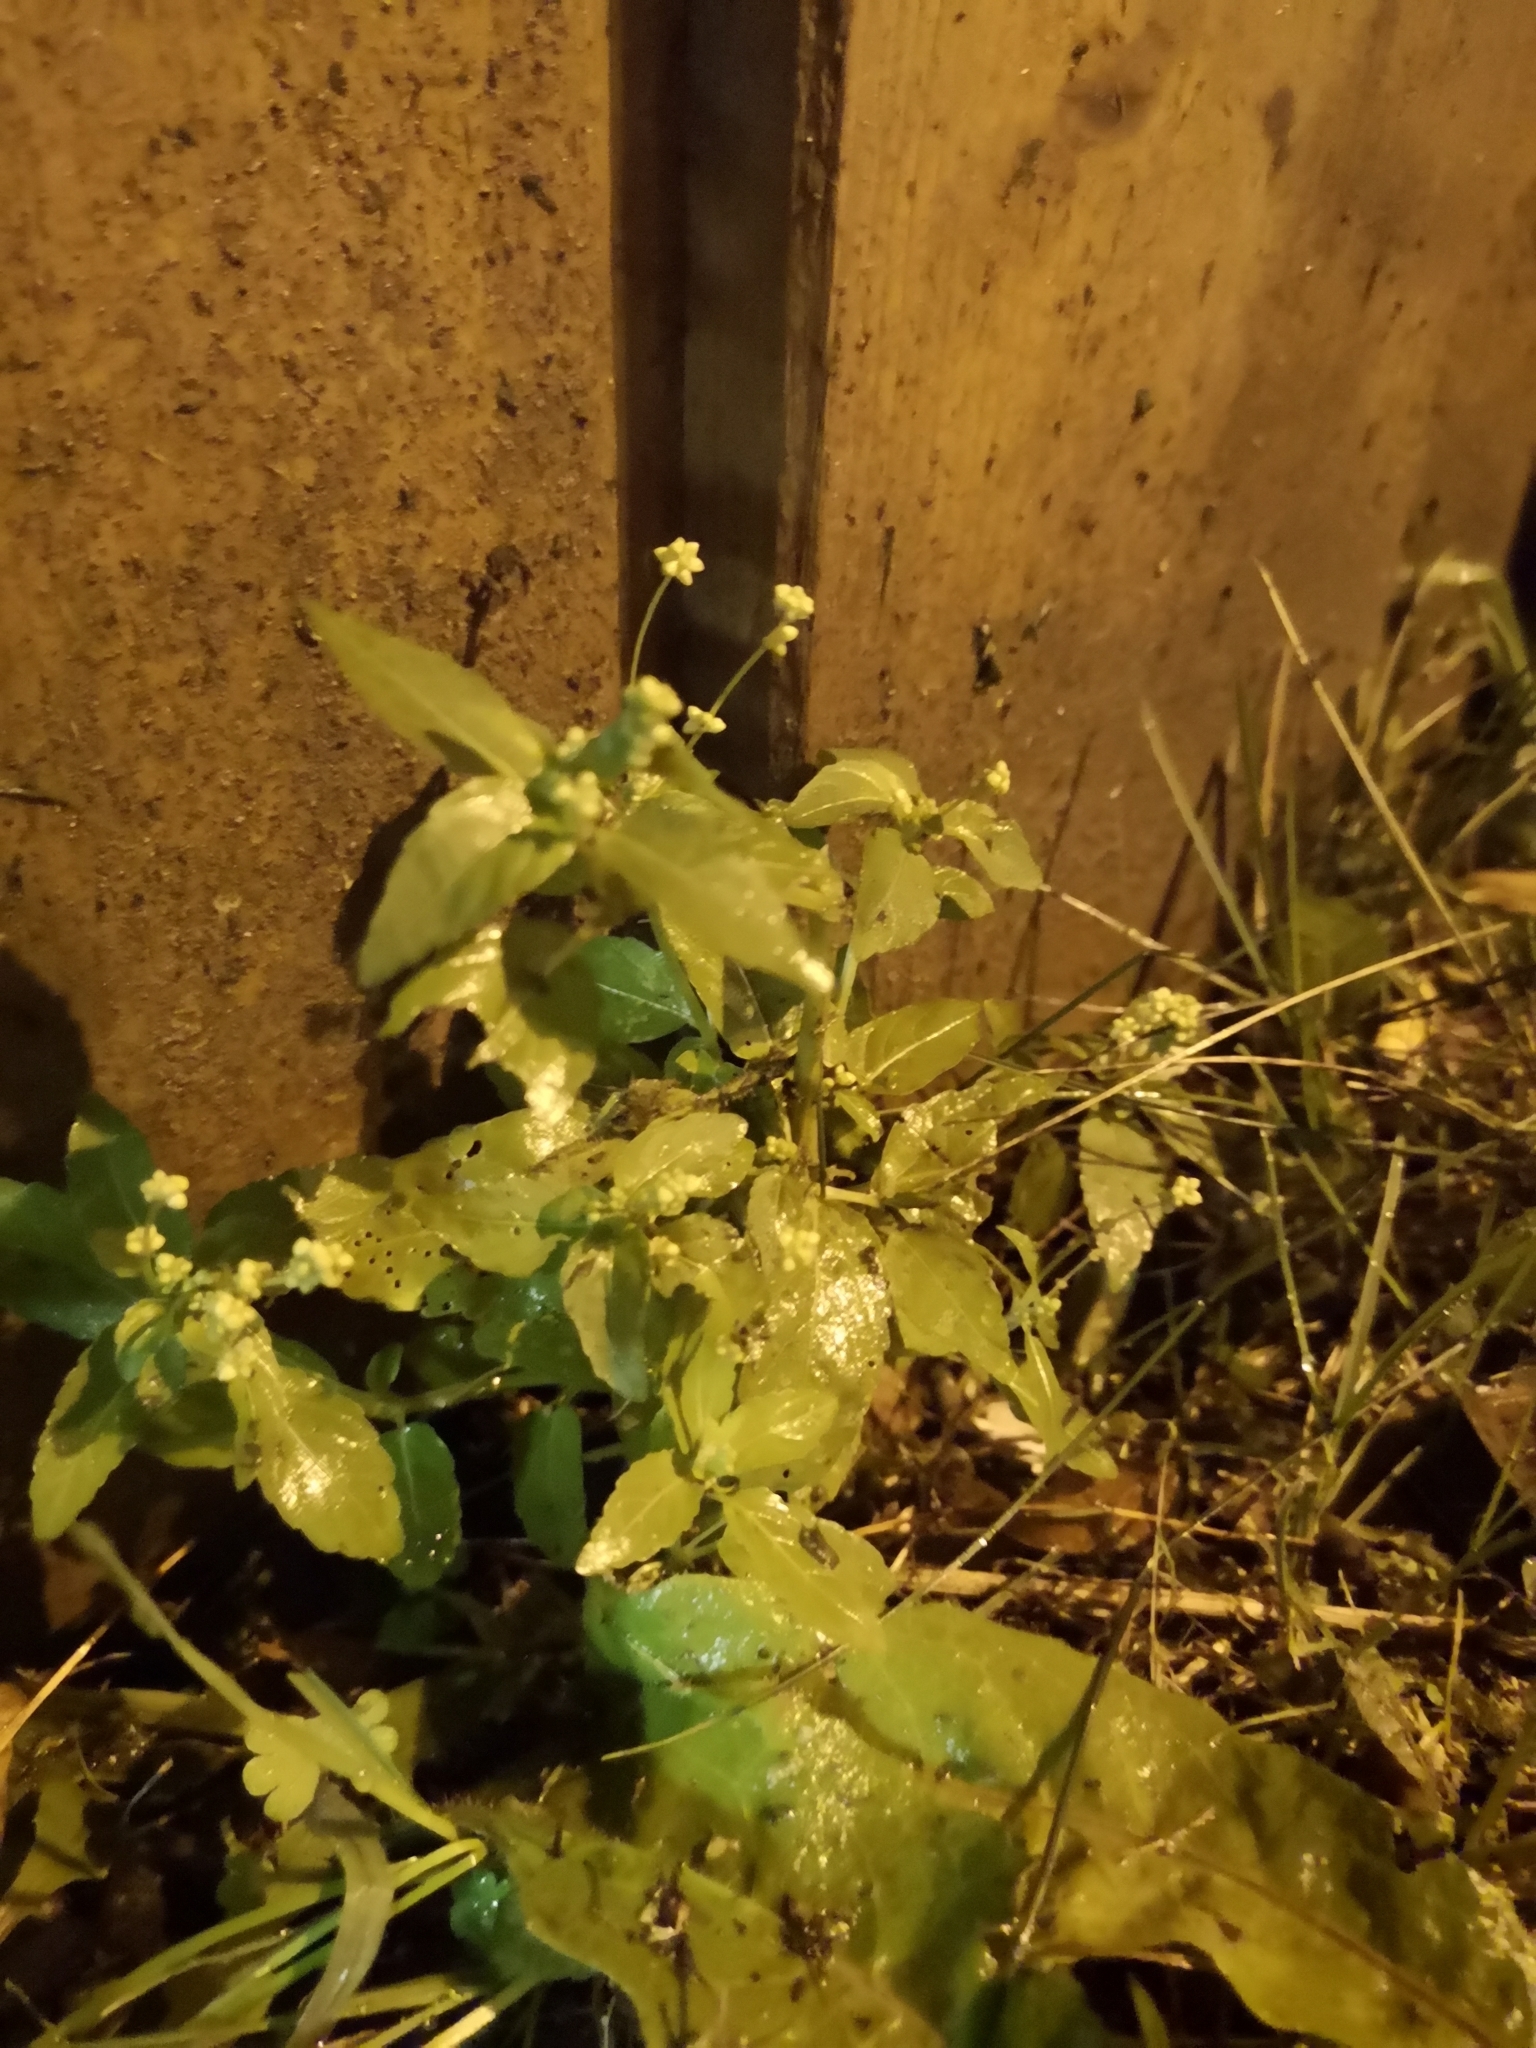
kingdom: Plantae
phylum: Tracheophyta
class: Magnoliopsida
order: Malpighiales
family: Euphorbiaceae
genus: Mercurialis
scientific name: Mercurialis annua
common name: Annual mercury
